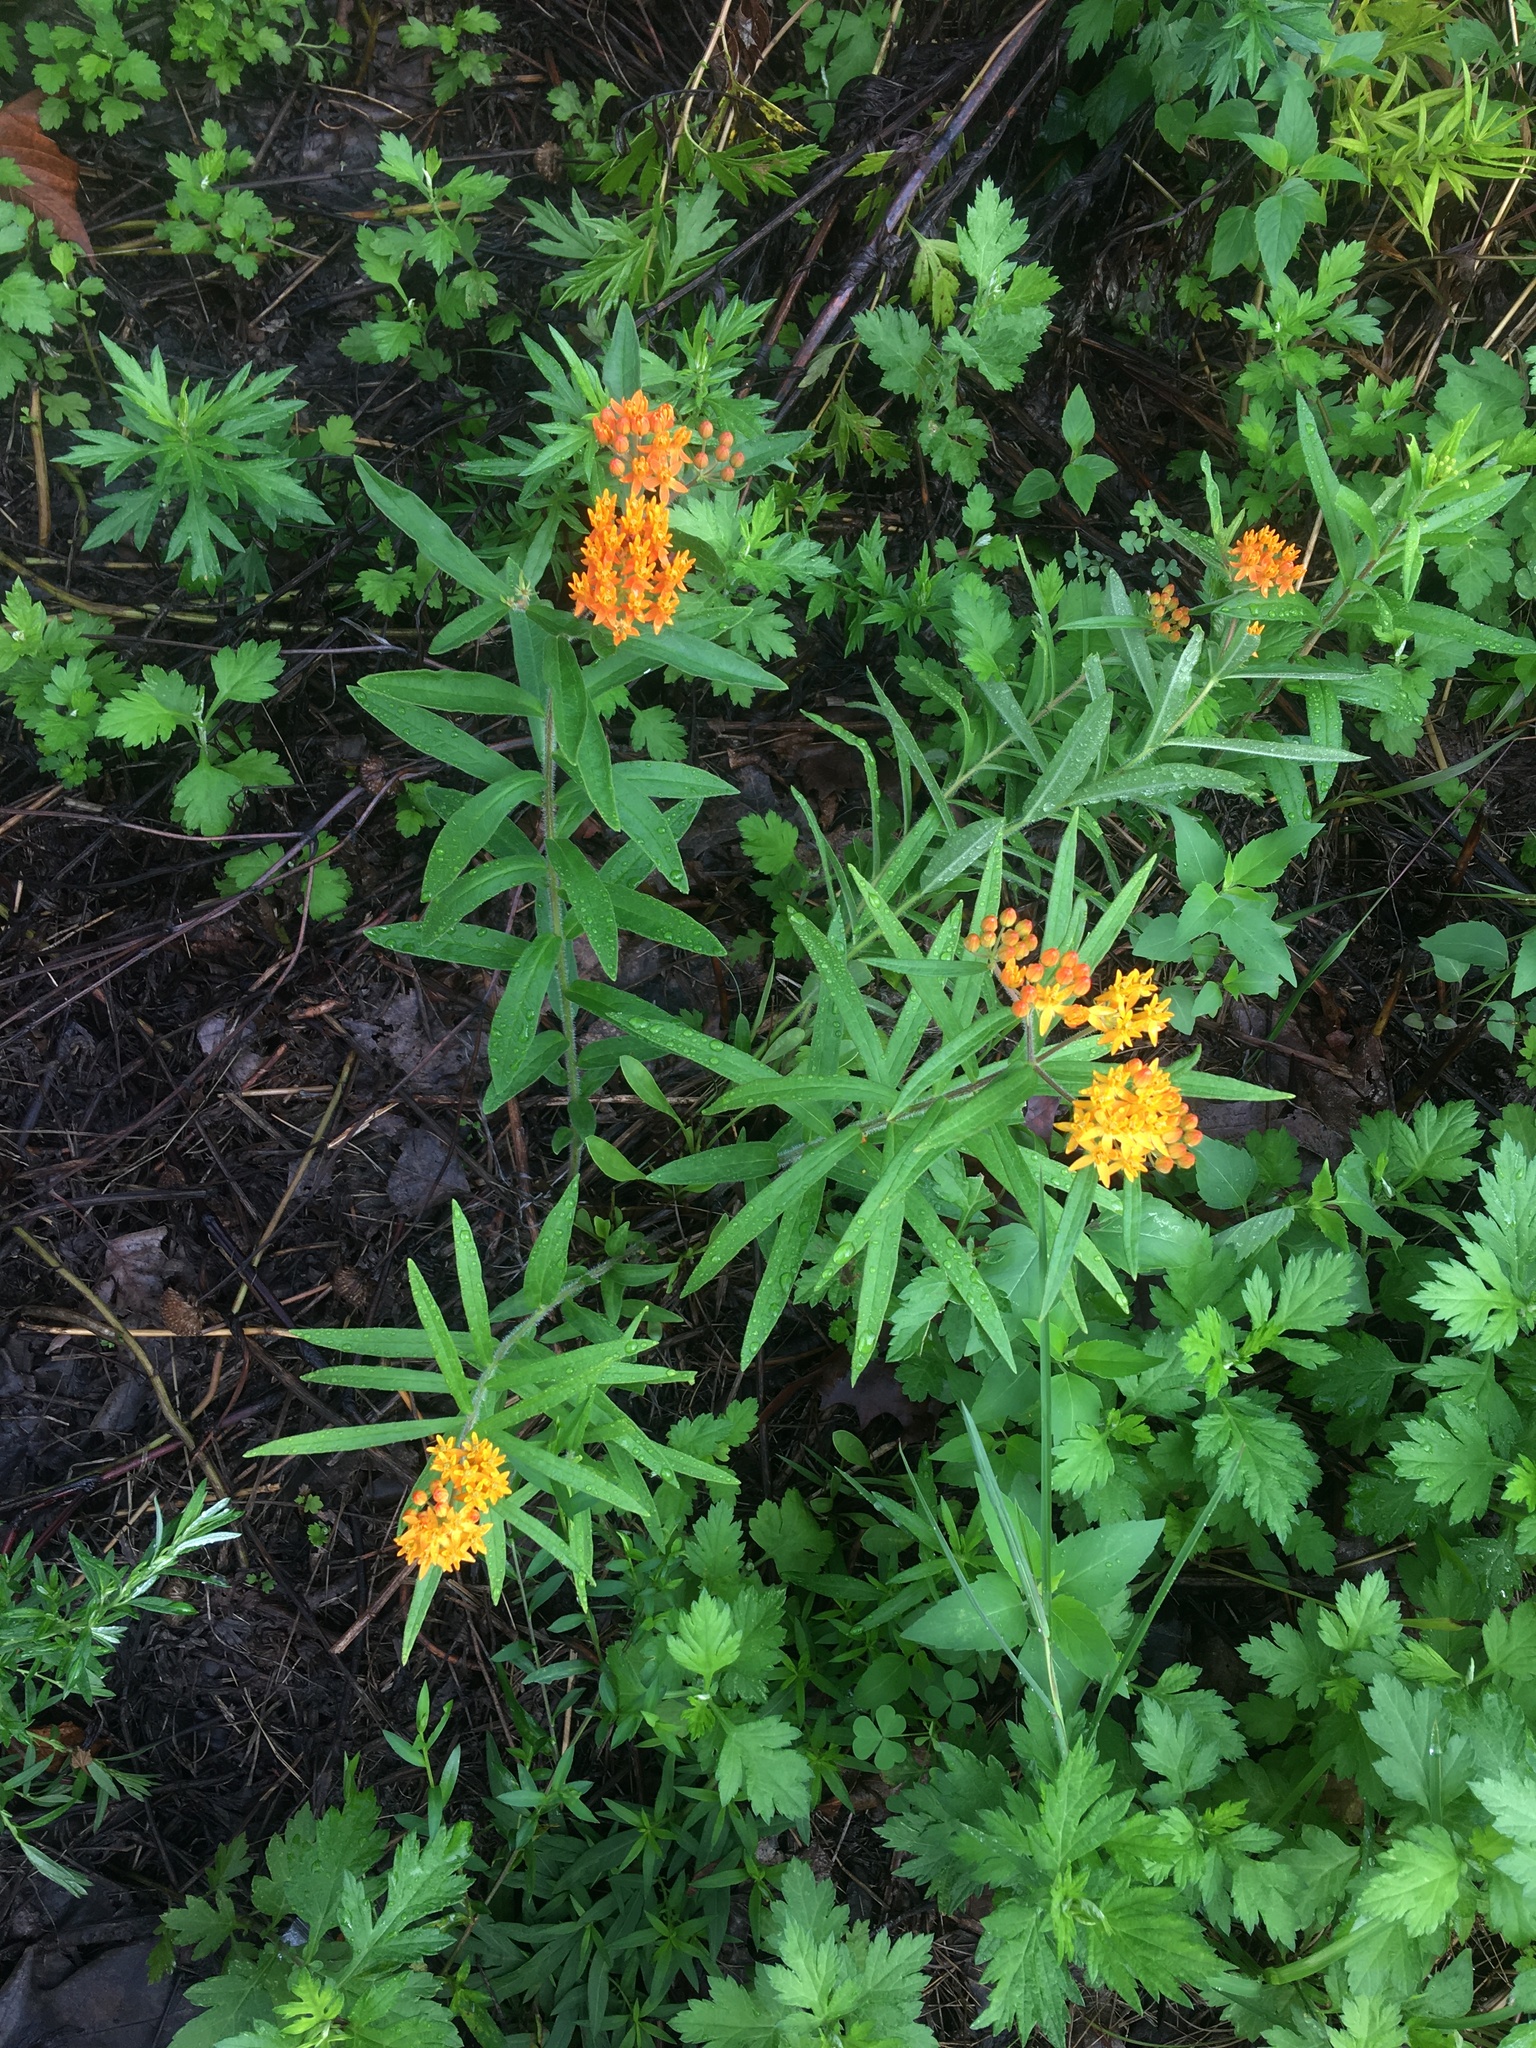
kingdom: Plantae
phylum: Tracheophyta
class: Magnoliopsida
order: Gentianales
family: Apocynaceae
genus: Asclepias
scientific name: Asclepias tuberosa
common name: Butterfly milkweed
